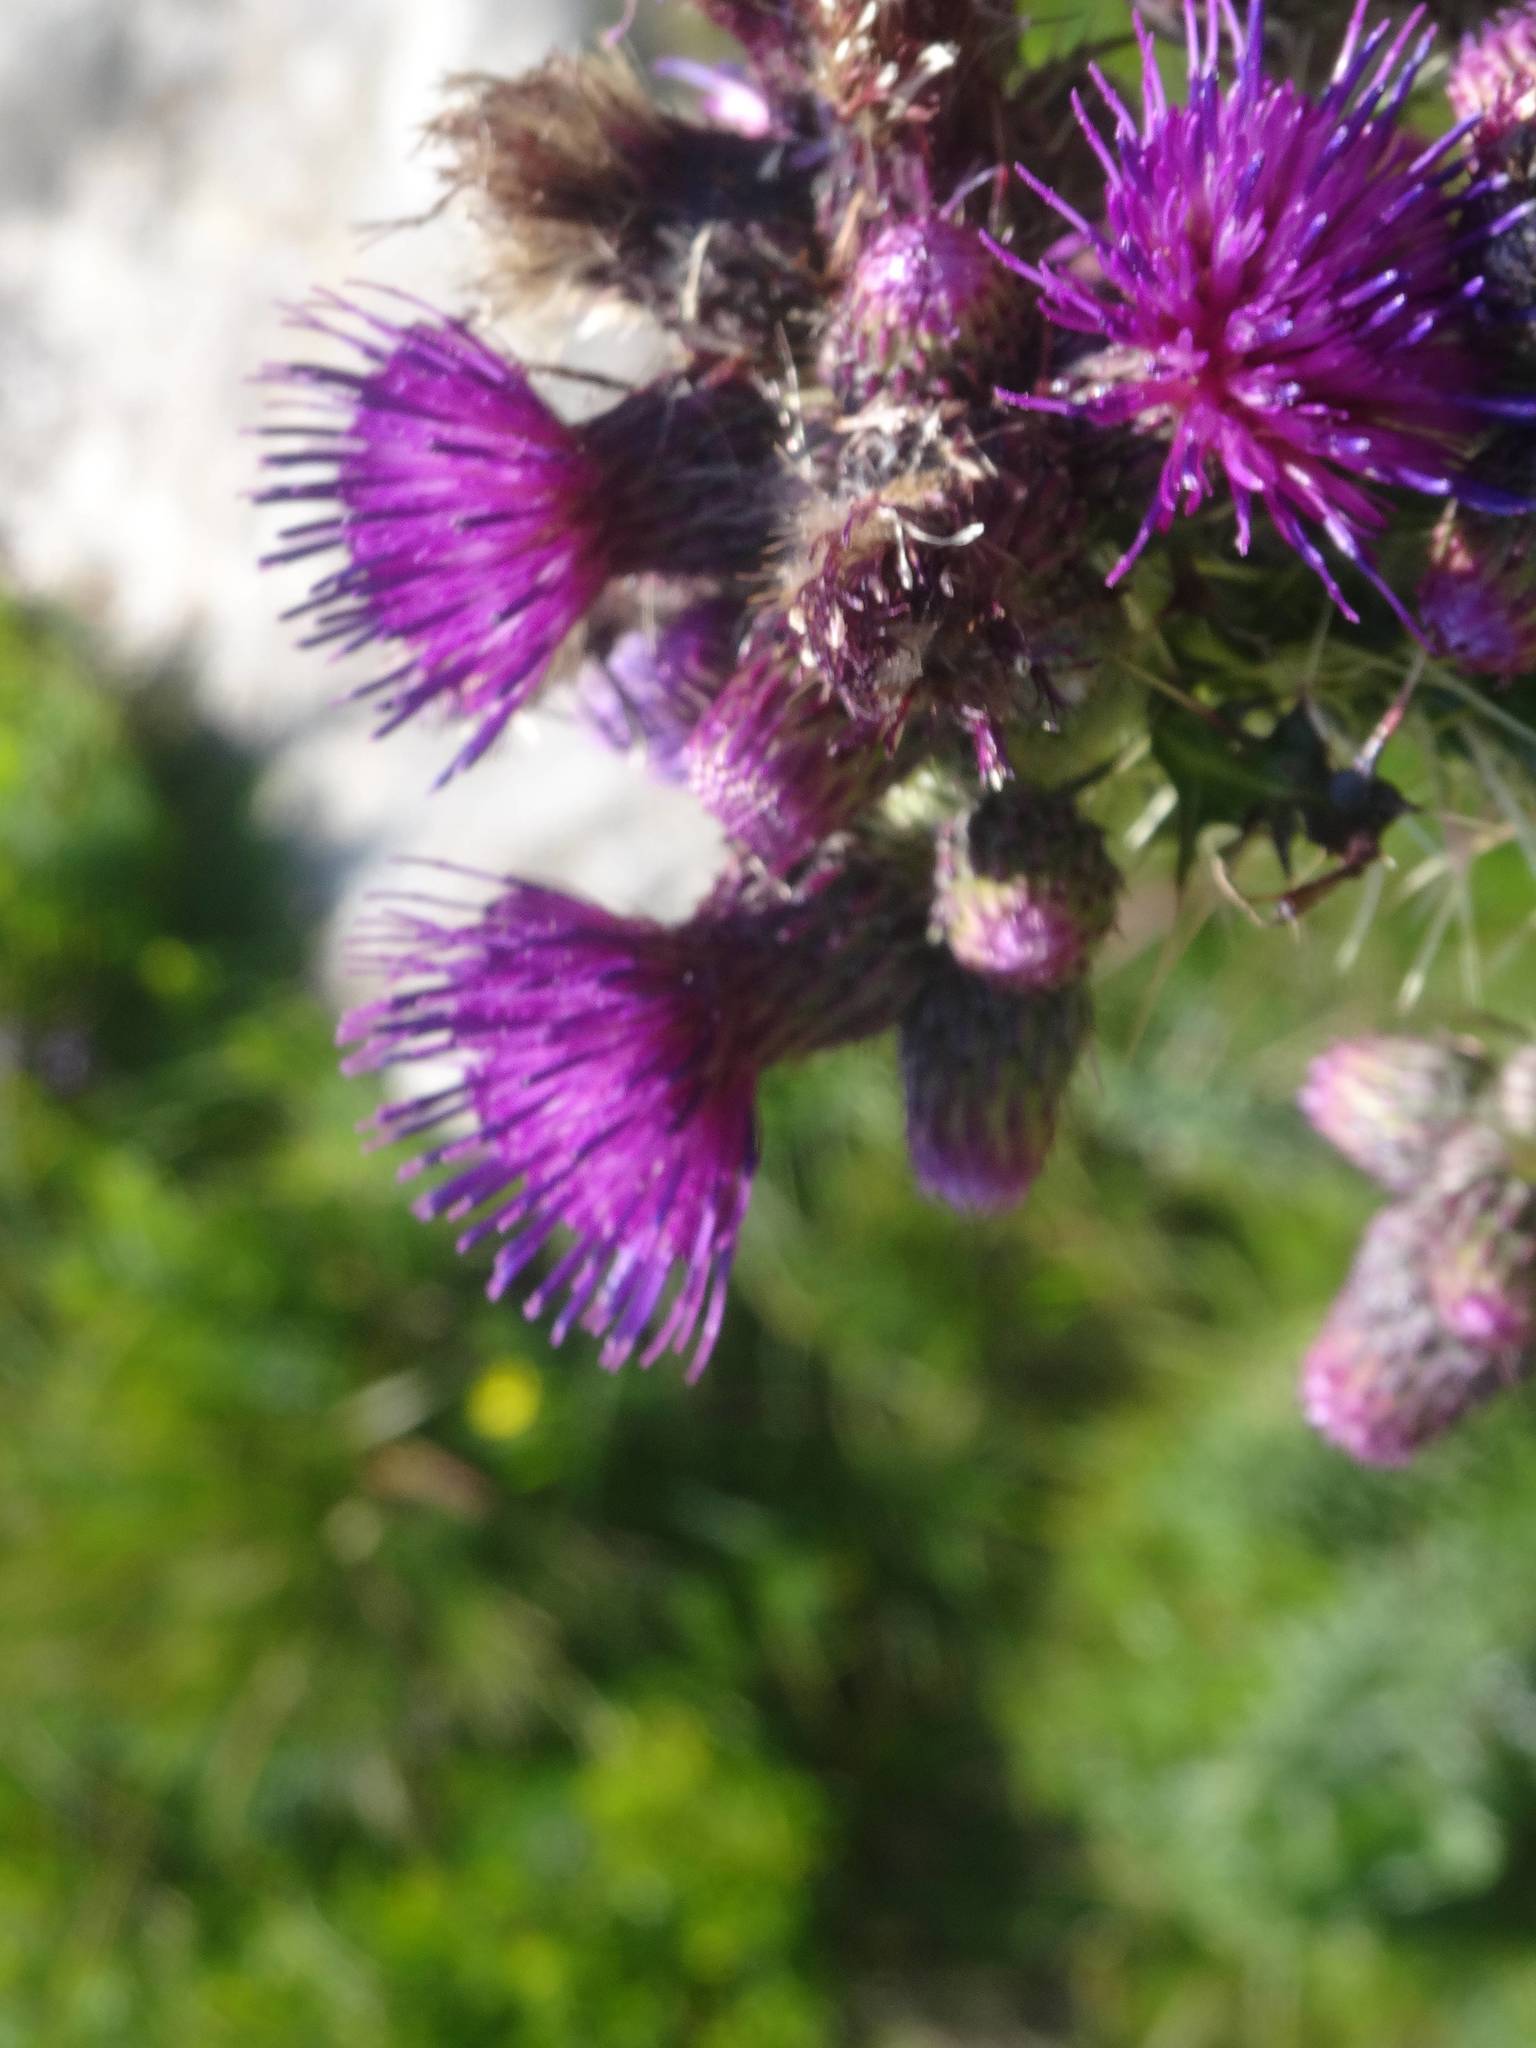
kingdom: Plantae
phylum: Tracheophyta
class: Magnoliopsida
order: Asterales
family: Asteraceae
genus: Cirsium
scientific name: Cirsium palustre
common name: Marsh thistle
